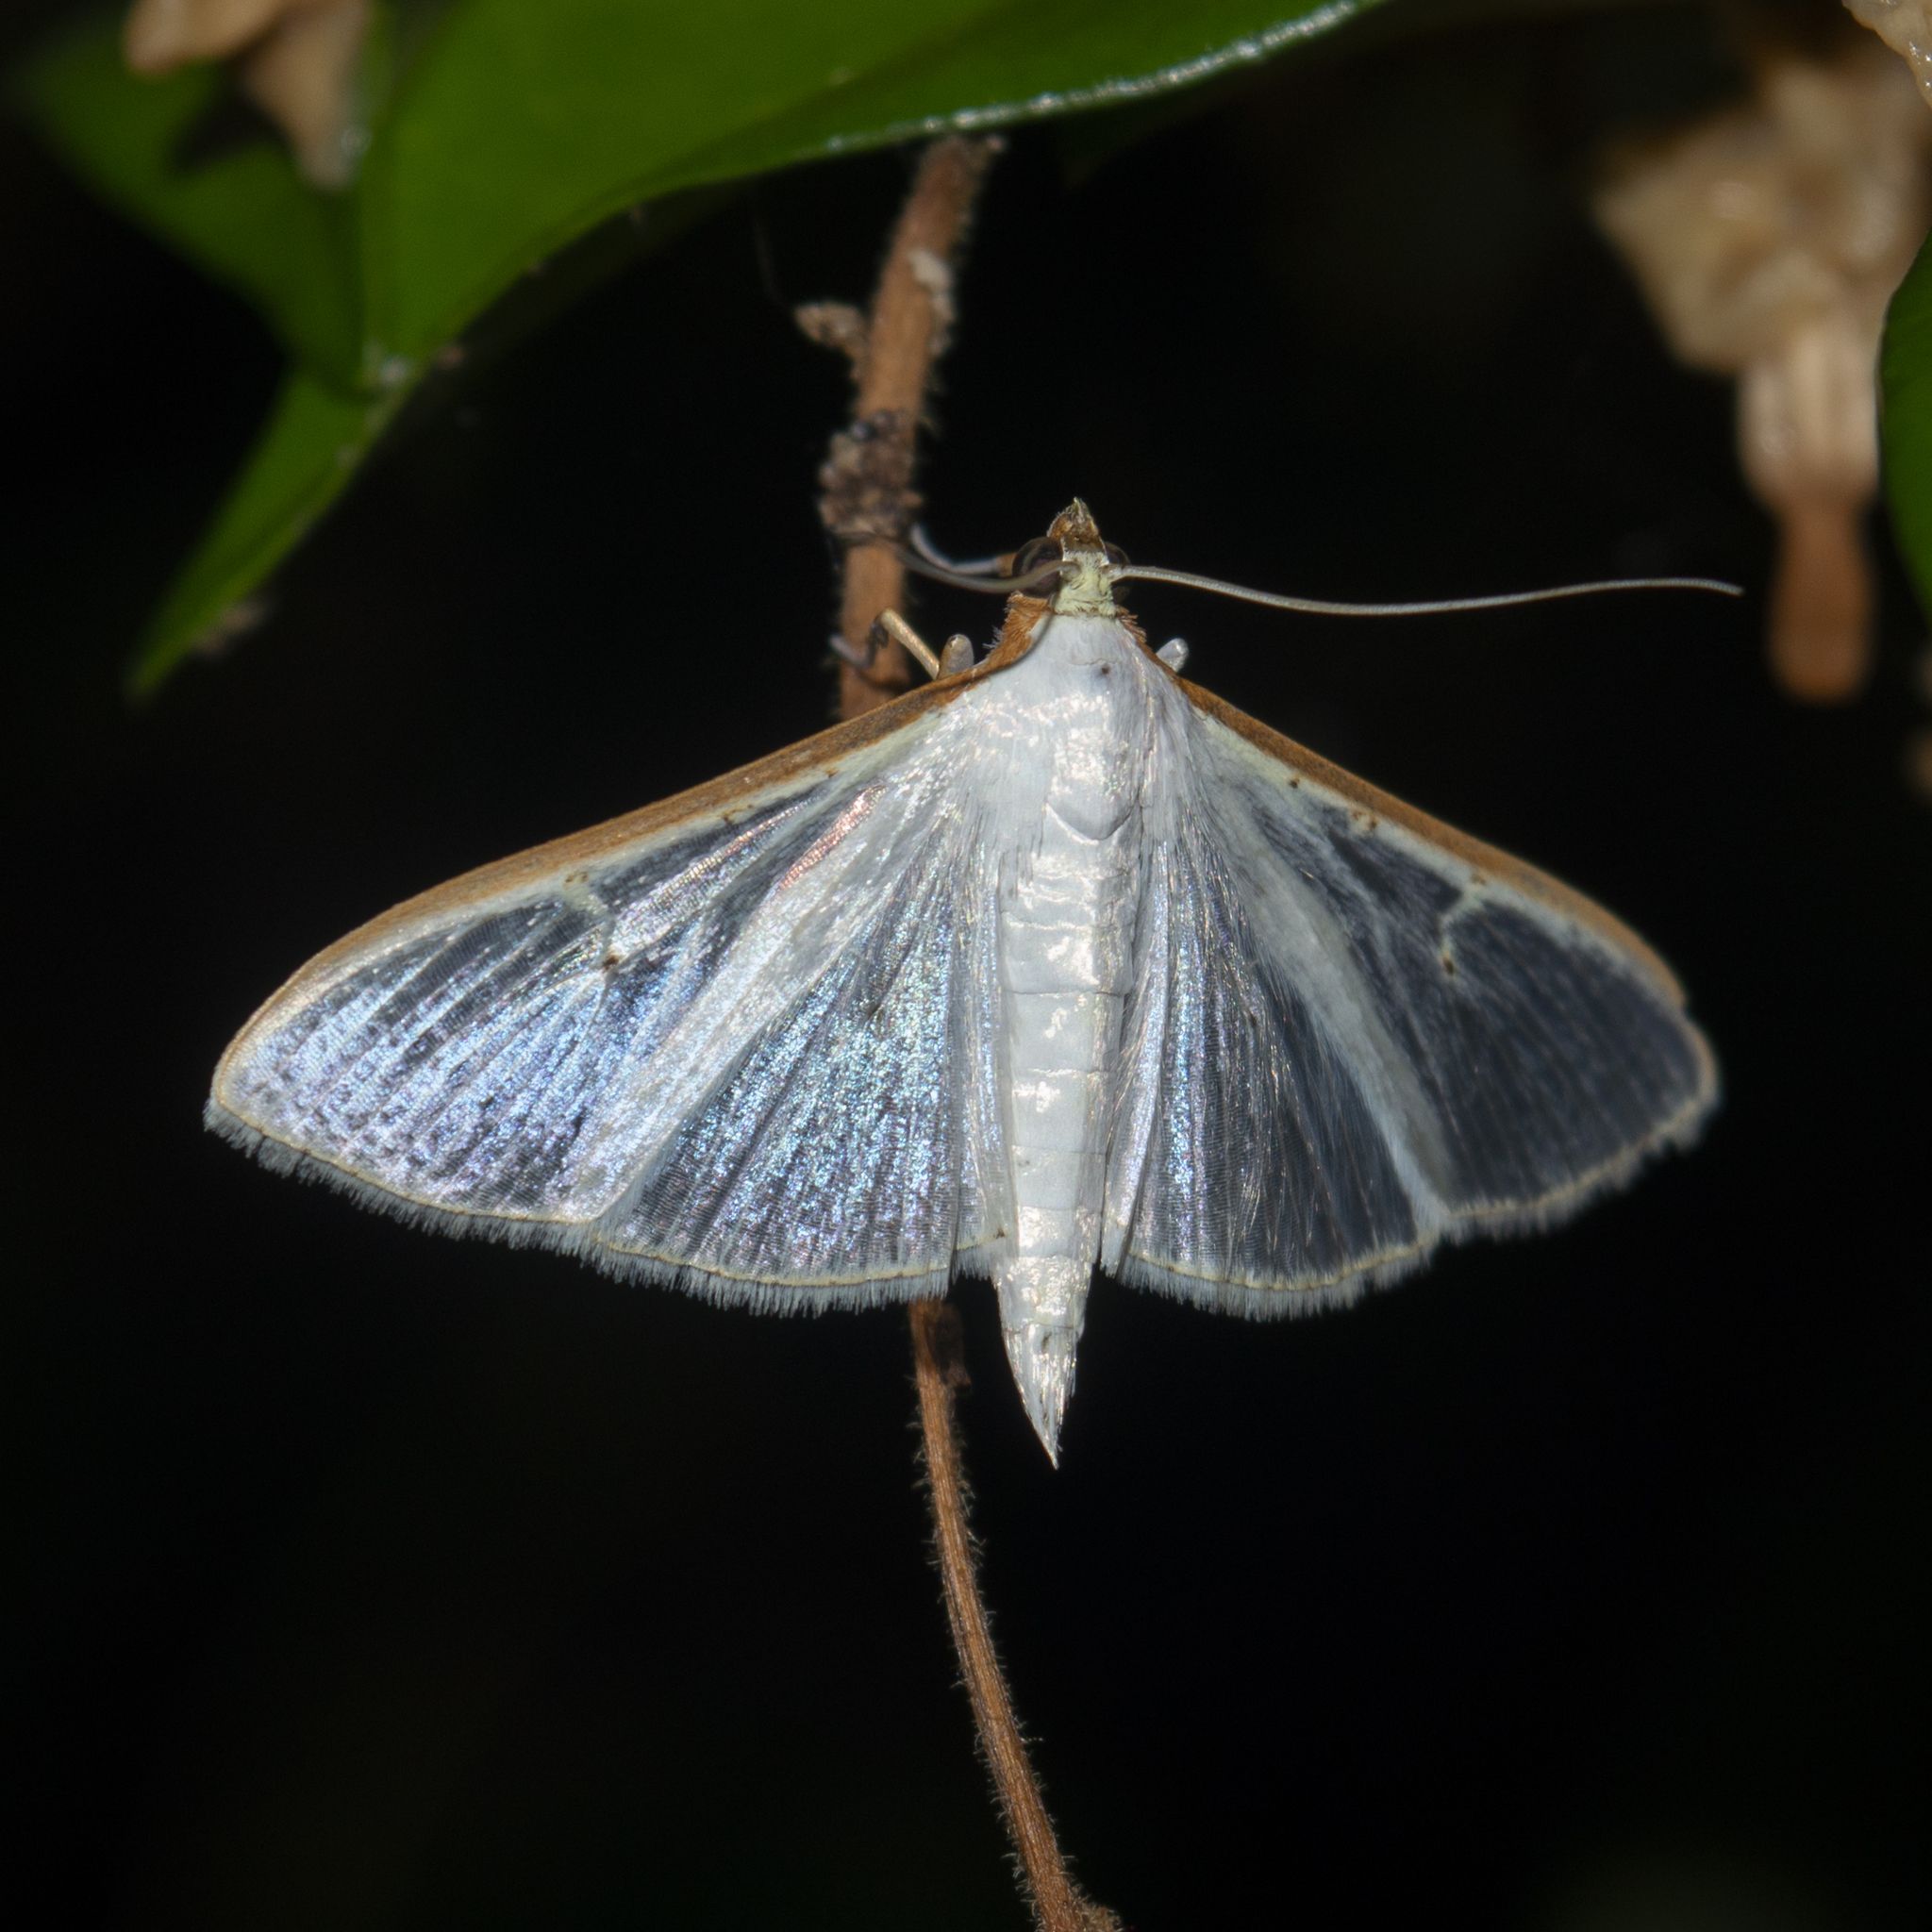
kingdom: Animalia
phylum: Arthropoda
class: Insecta
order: Lepidoptera
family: Crambidae
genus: Palpita
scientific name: Palpita vitrealis
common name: Olive-tree pearl
